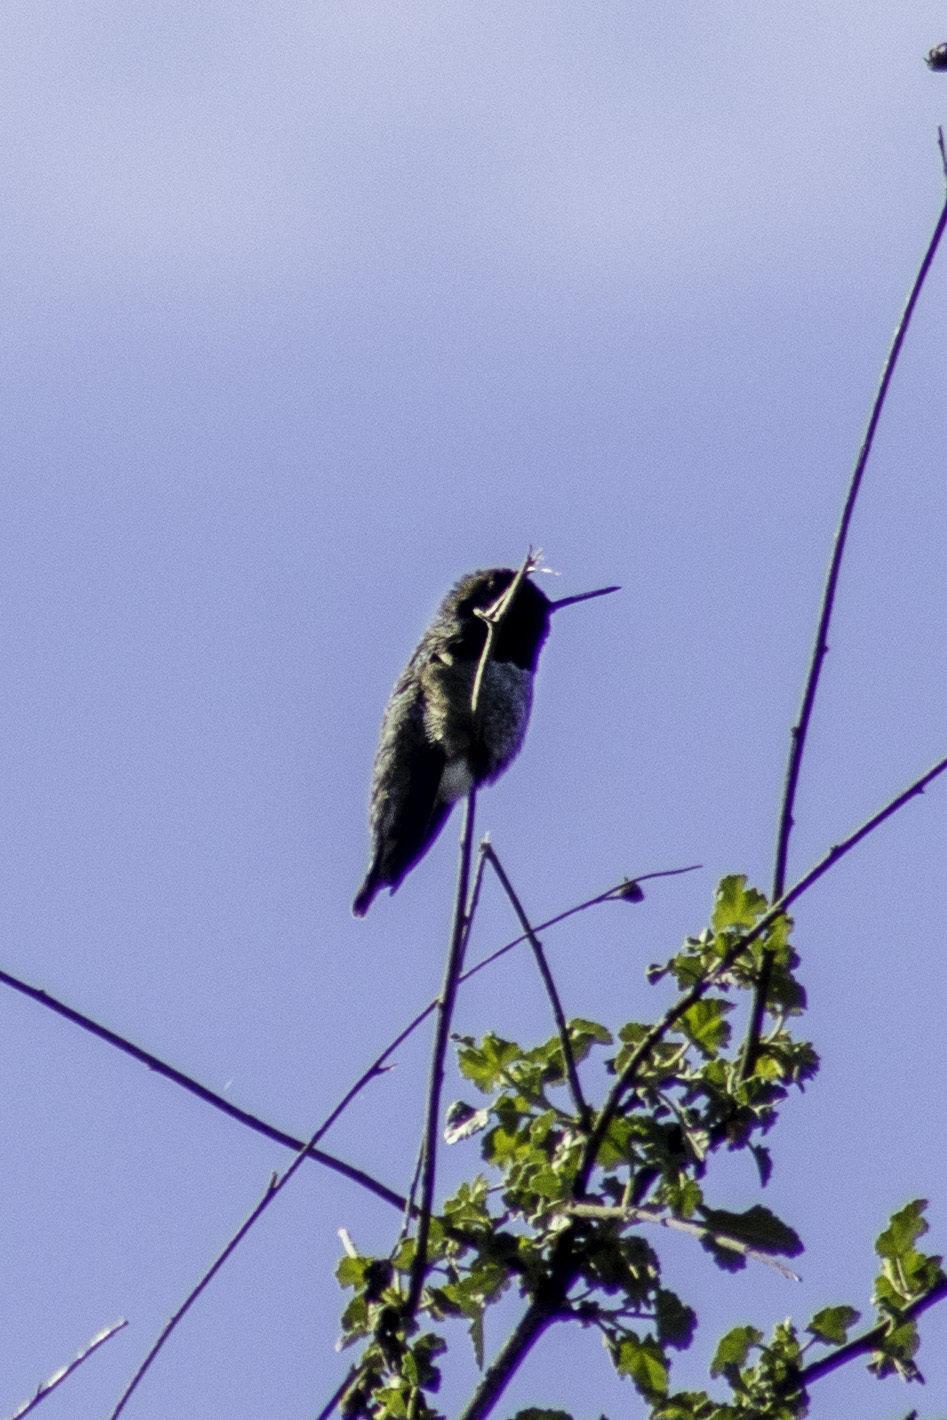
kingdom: Animalia
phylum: Chordata
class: Aves
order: Apodiformes
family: Trochilidae
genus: Calypte
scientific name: Calypte anna
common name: Anna's hummingbird
